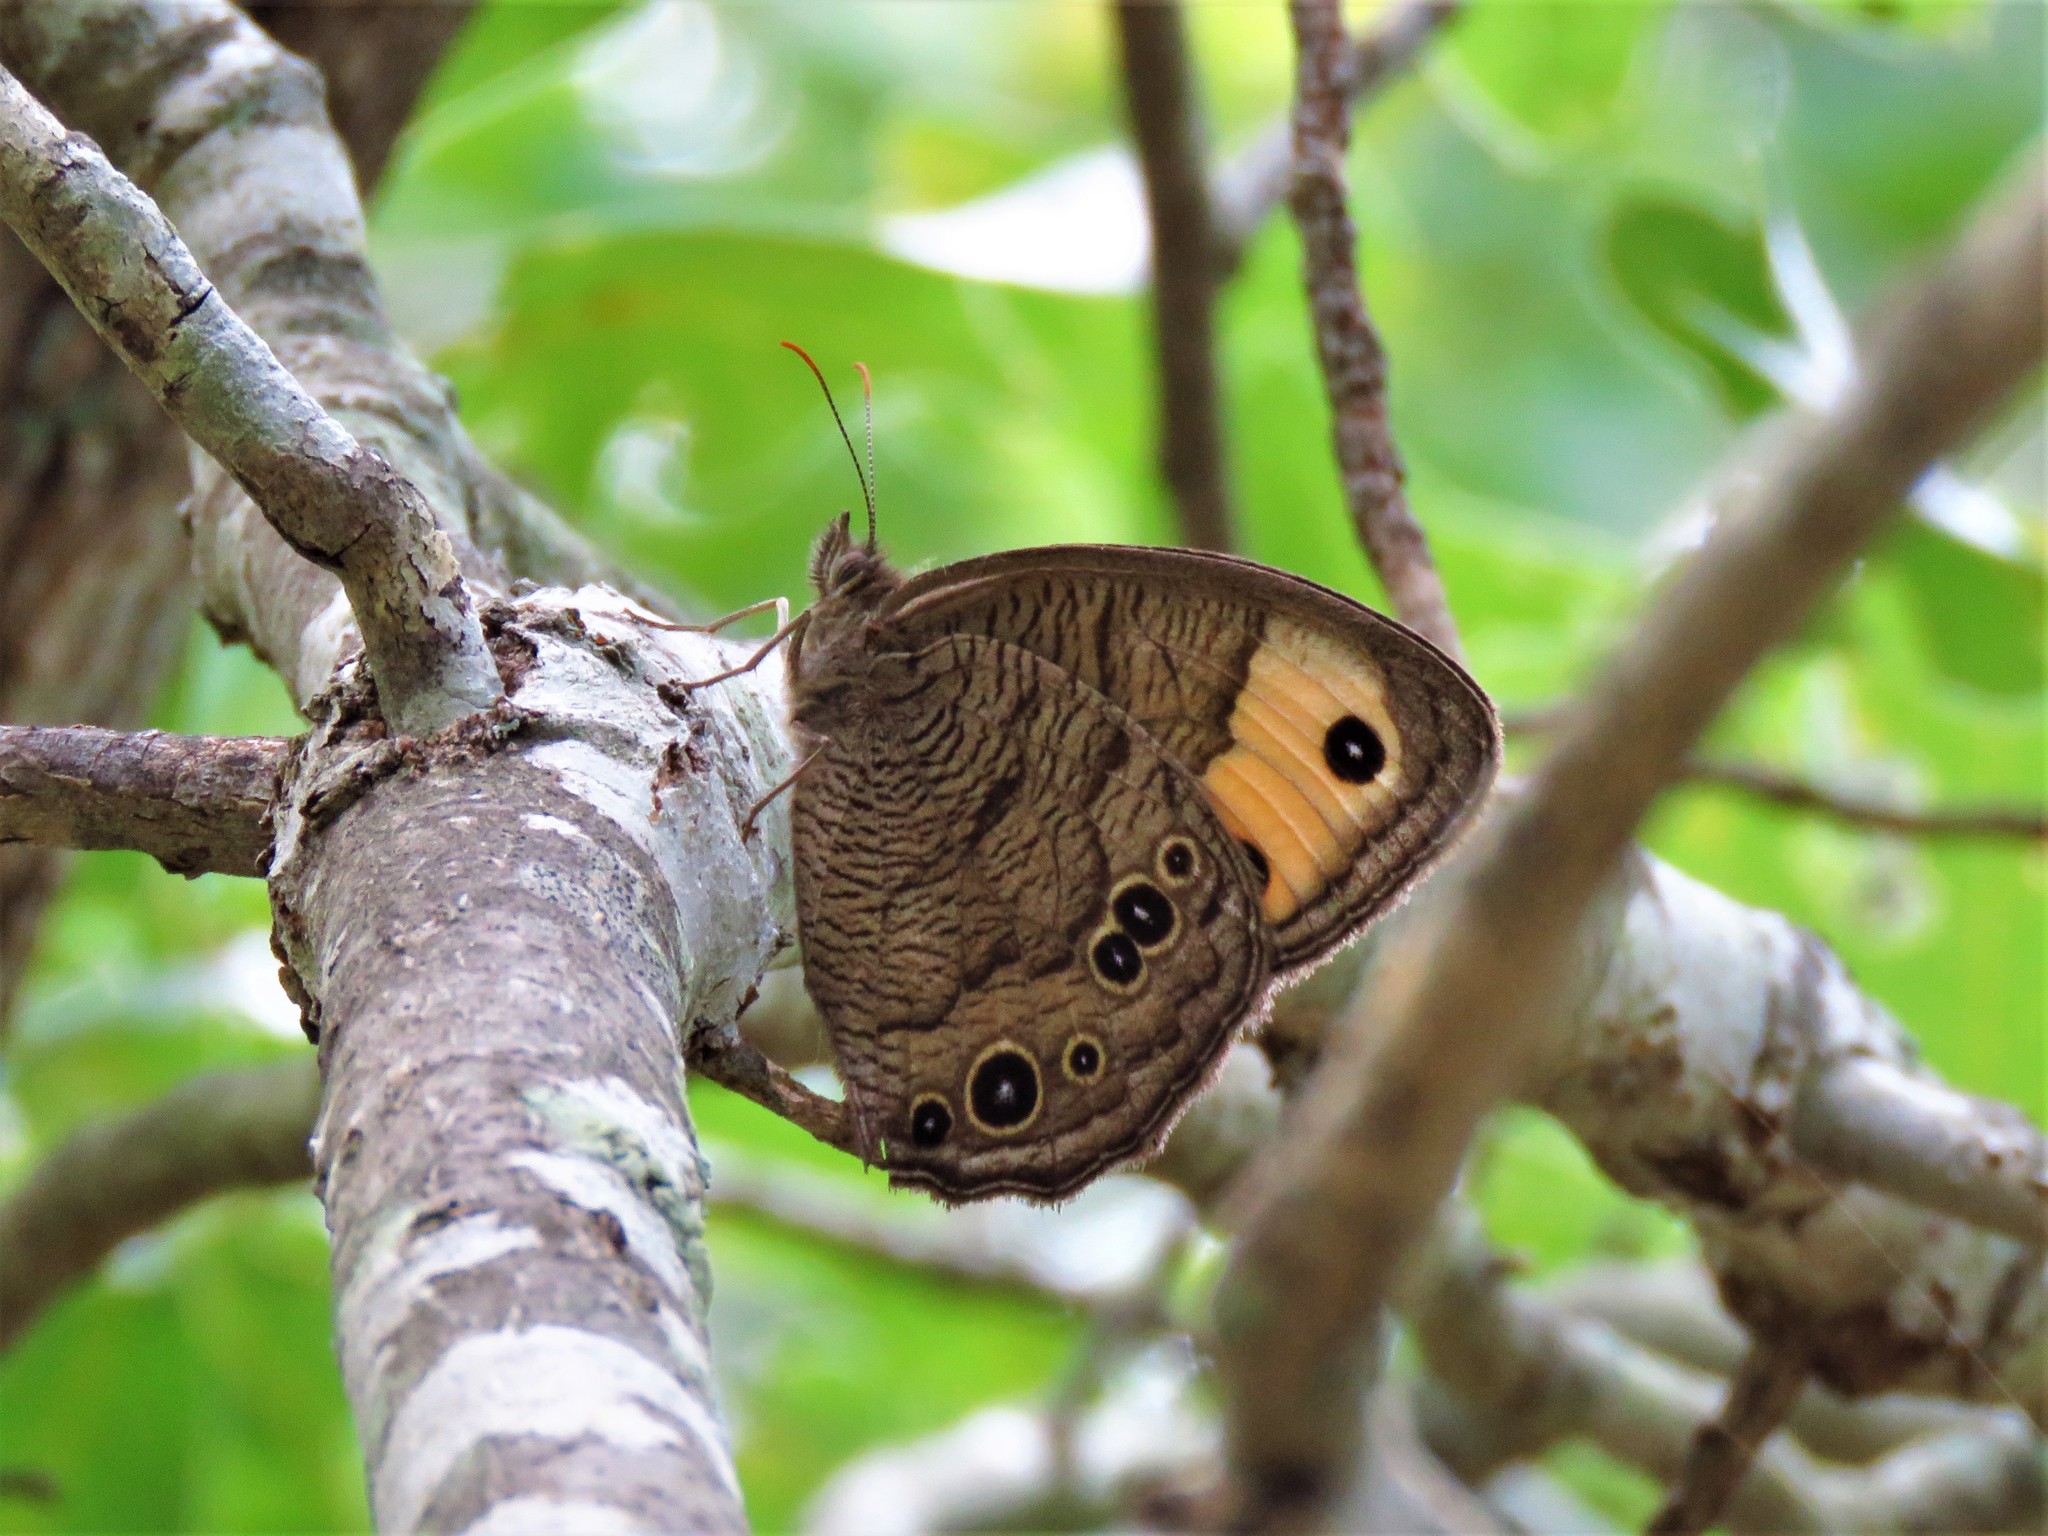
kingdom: Animalia
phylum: Arthropoda
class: Insecta
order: Lepidoptera
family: Nymphalidae
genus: Cercyonis
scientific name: Cercyonis pegala
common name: Common wood-nymph
